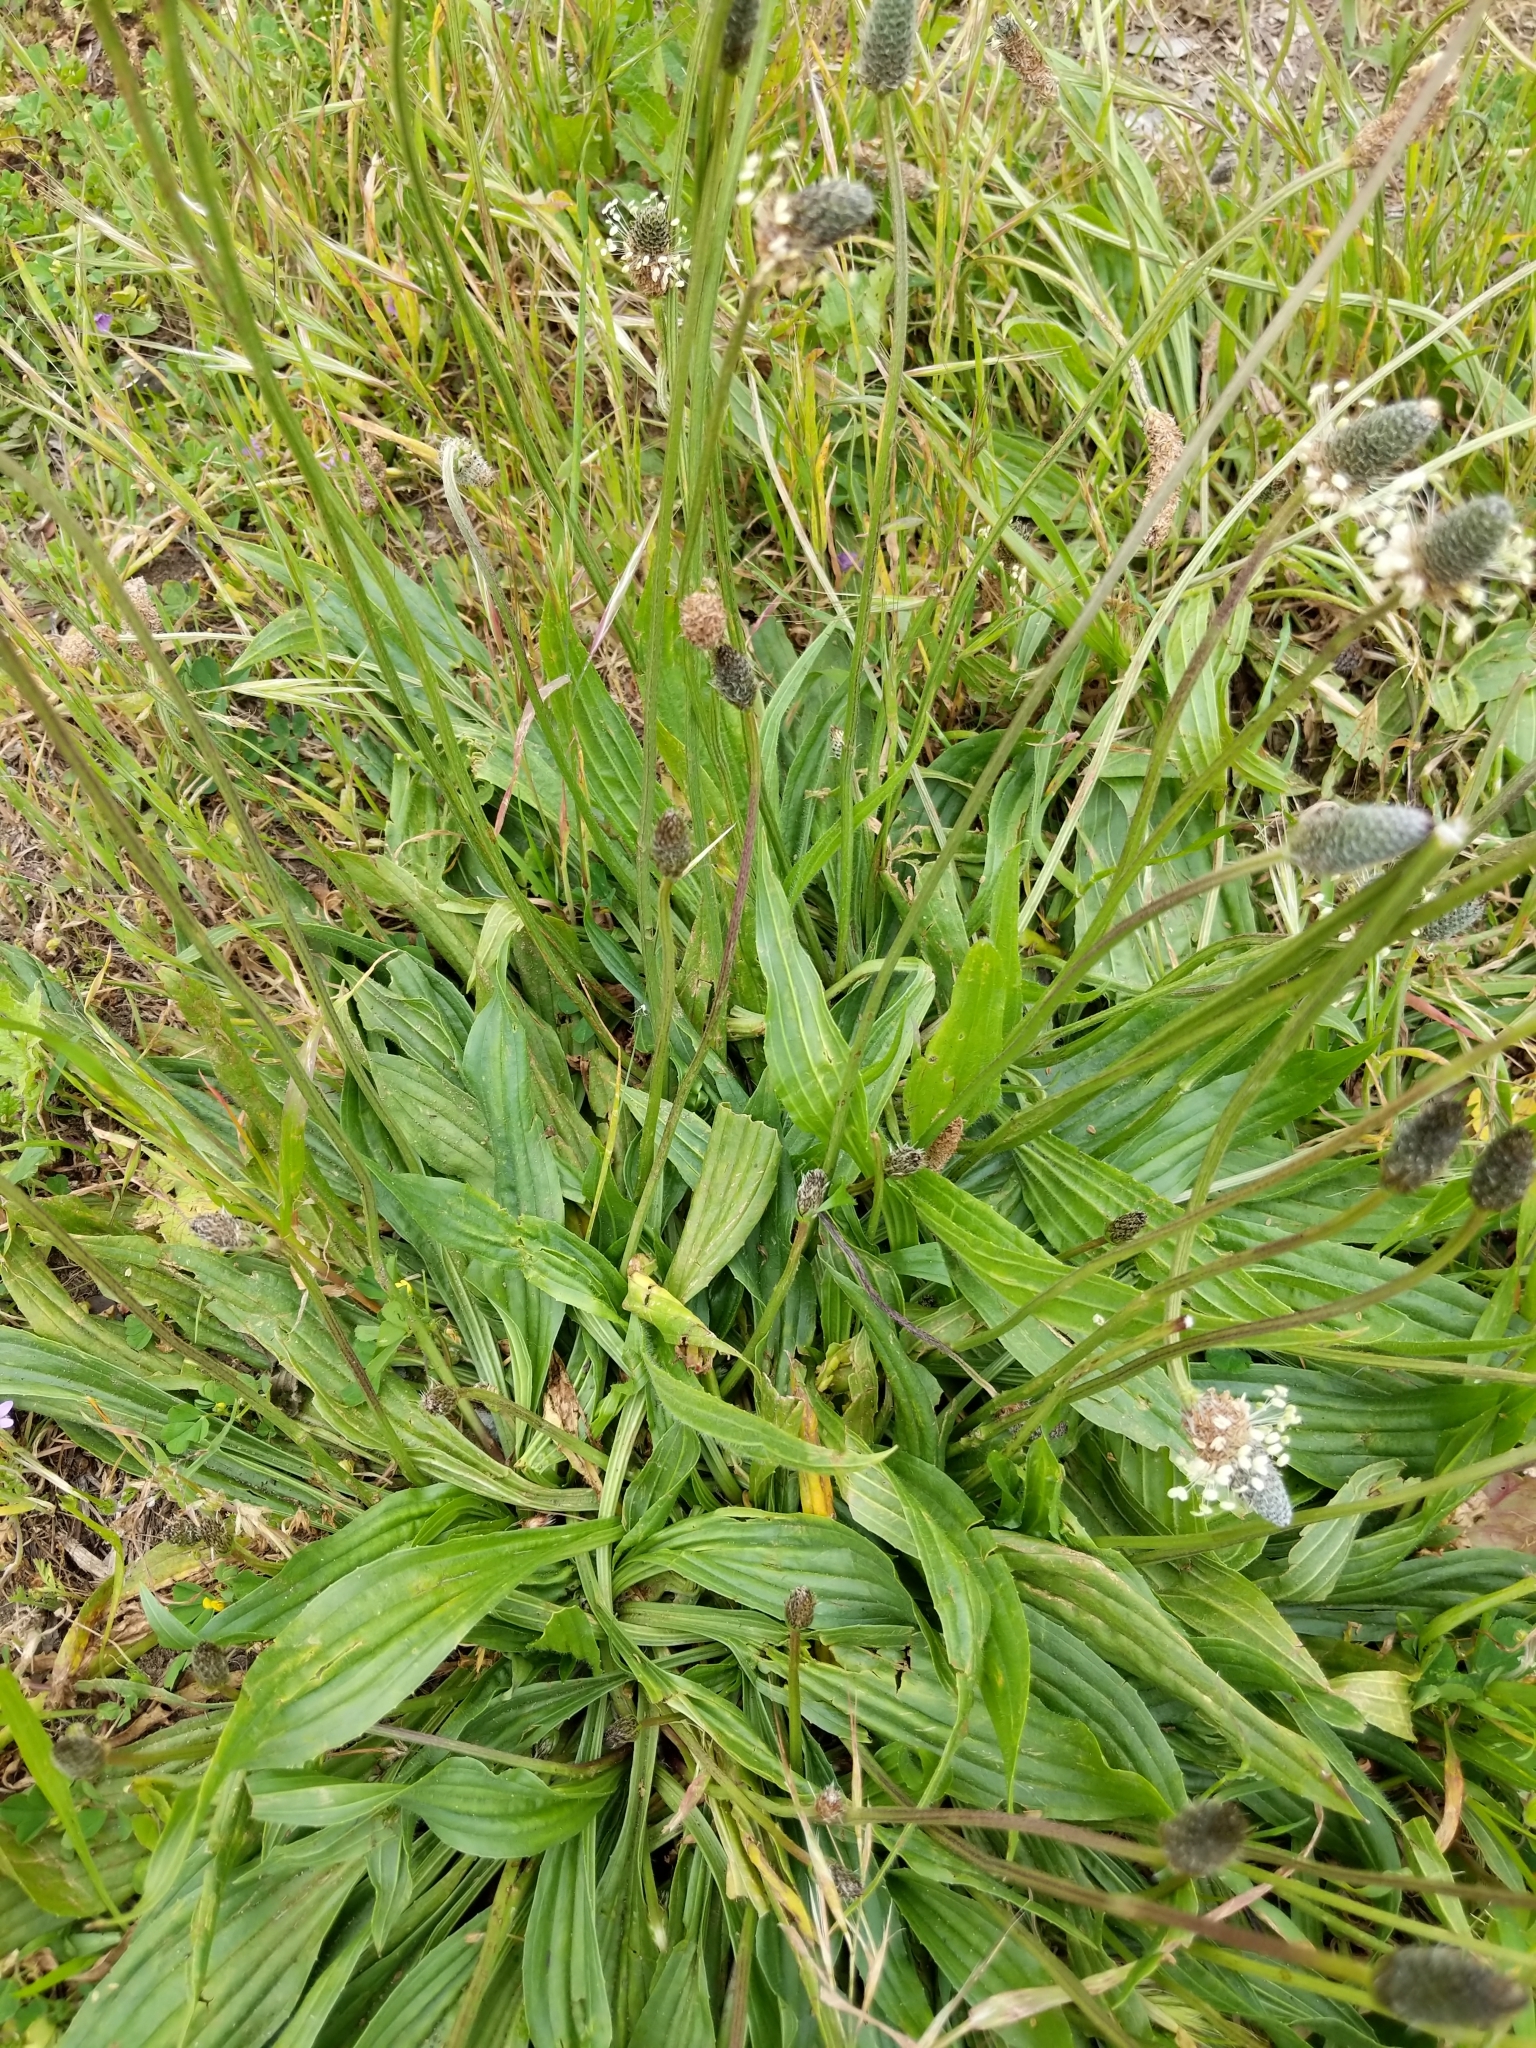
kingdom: Plantae
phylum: Tracheophyta
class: Magnoliopsida
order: Lamiales
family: Plantaginaceae
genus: Plantago
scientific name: Plantago lanceolata
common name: Ribwort plantain
